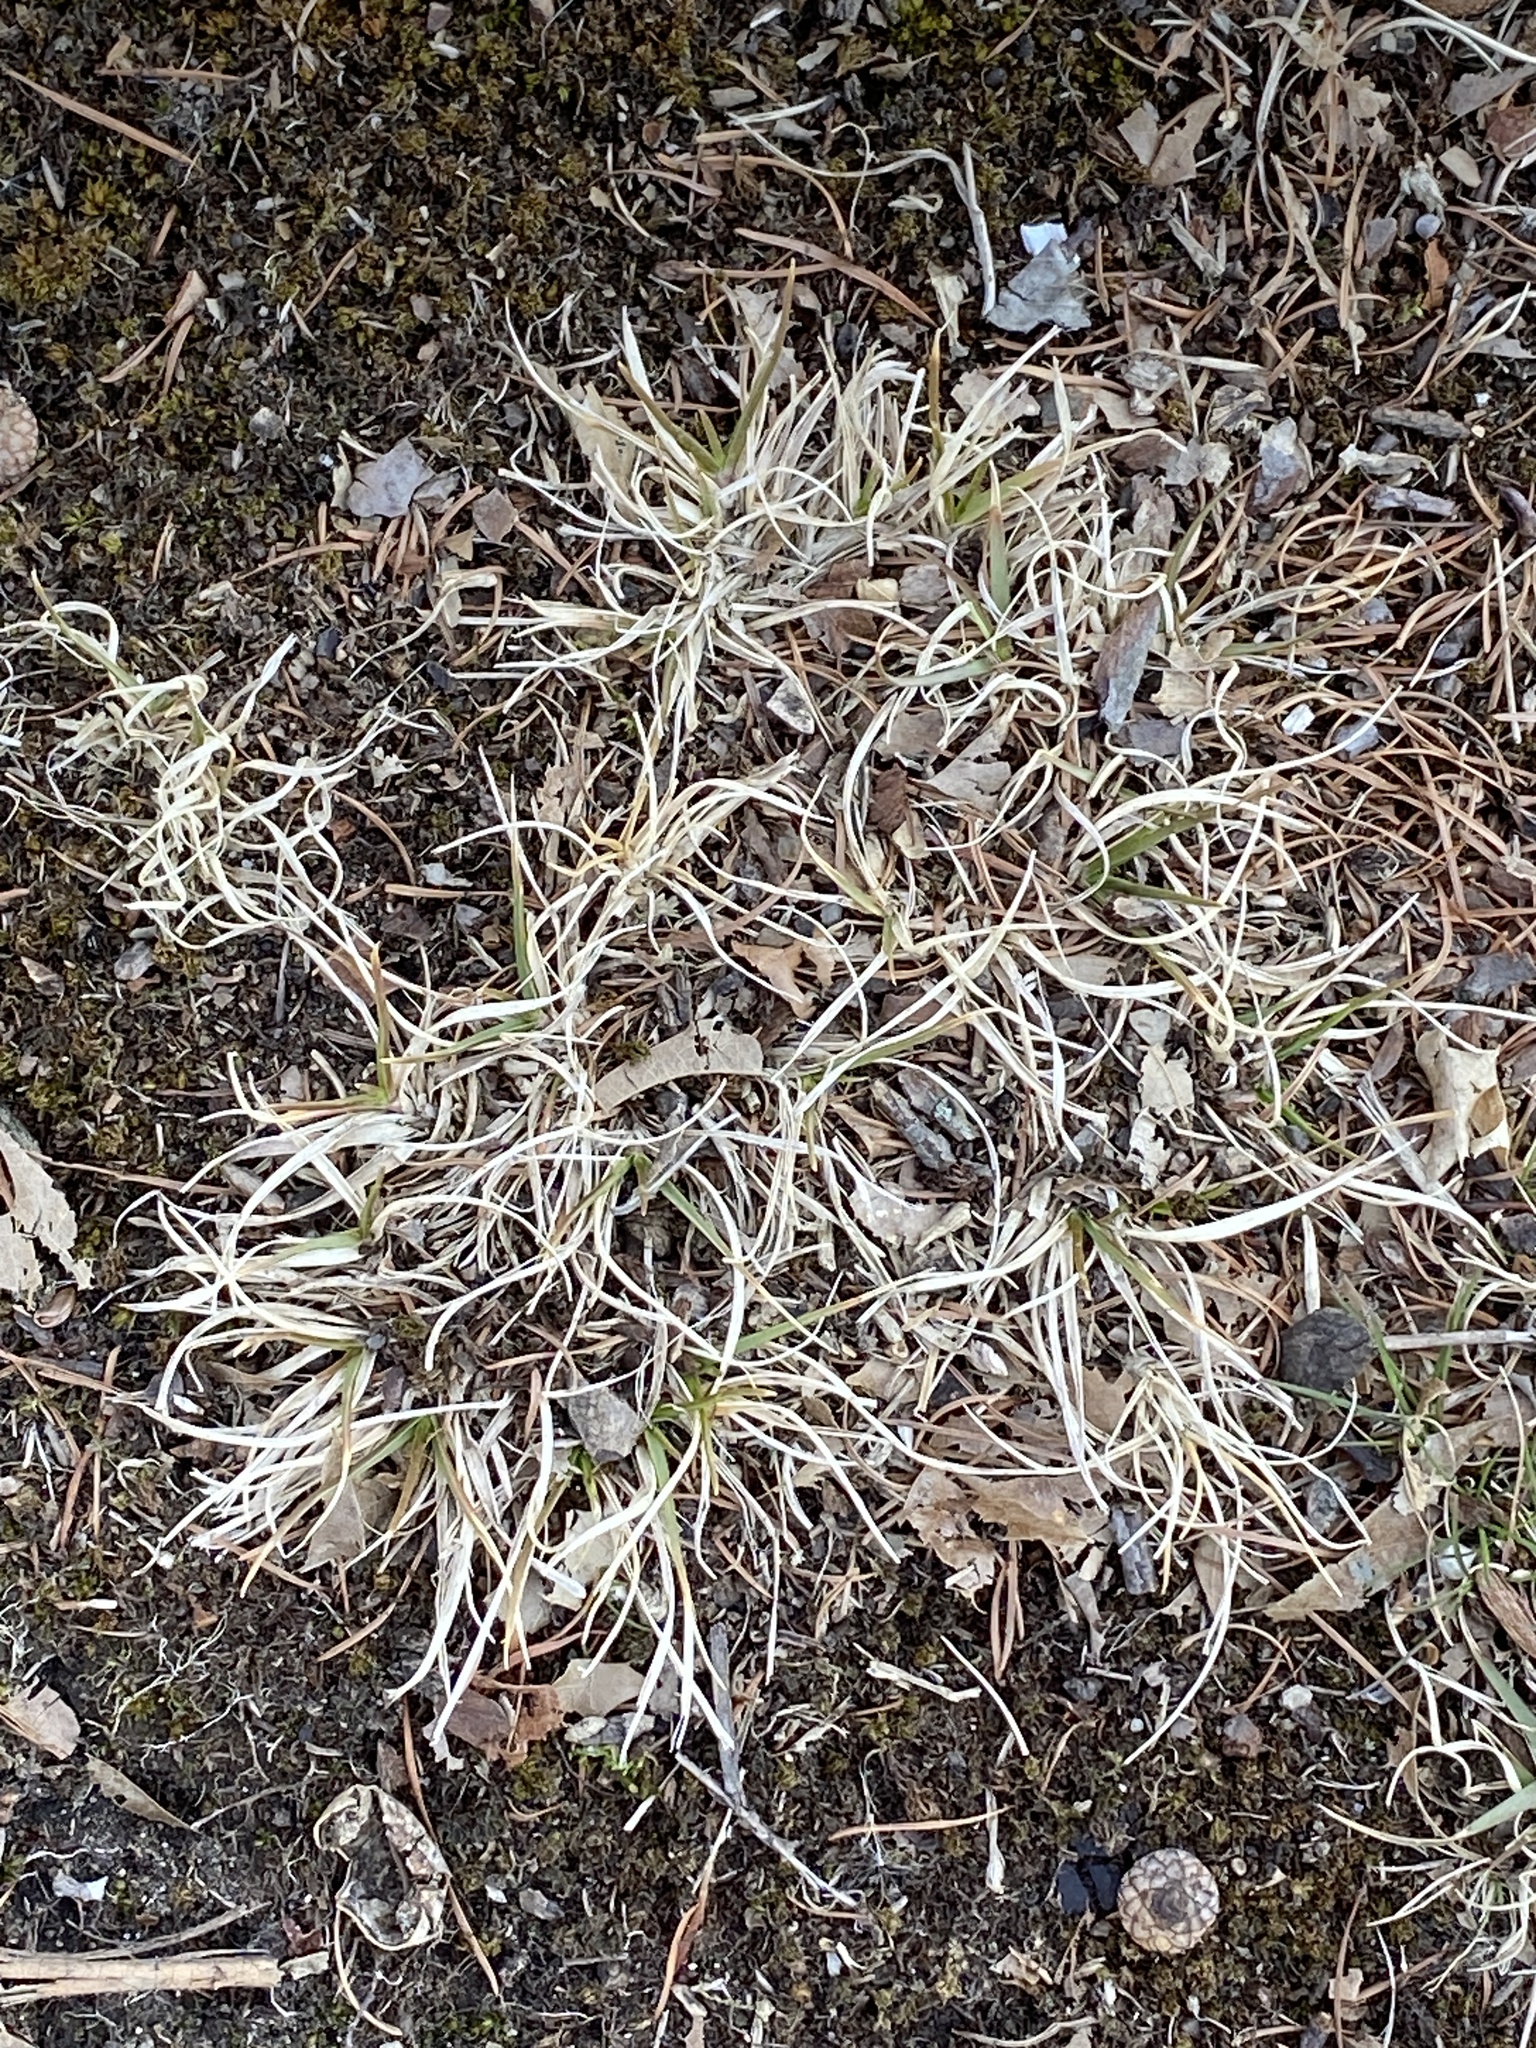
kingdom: Plantae
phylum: Tracheophyta
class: Liliopsida
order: Poales
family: Poaceae
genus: Danthonia
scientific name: Danthonia spicata
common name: Common wild oatgrass
